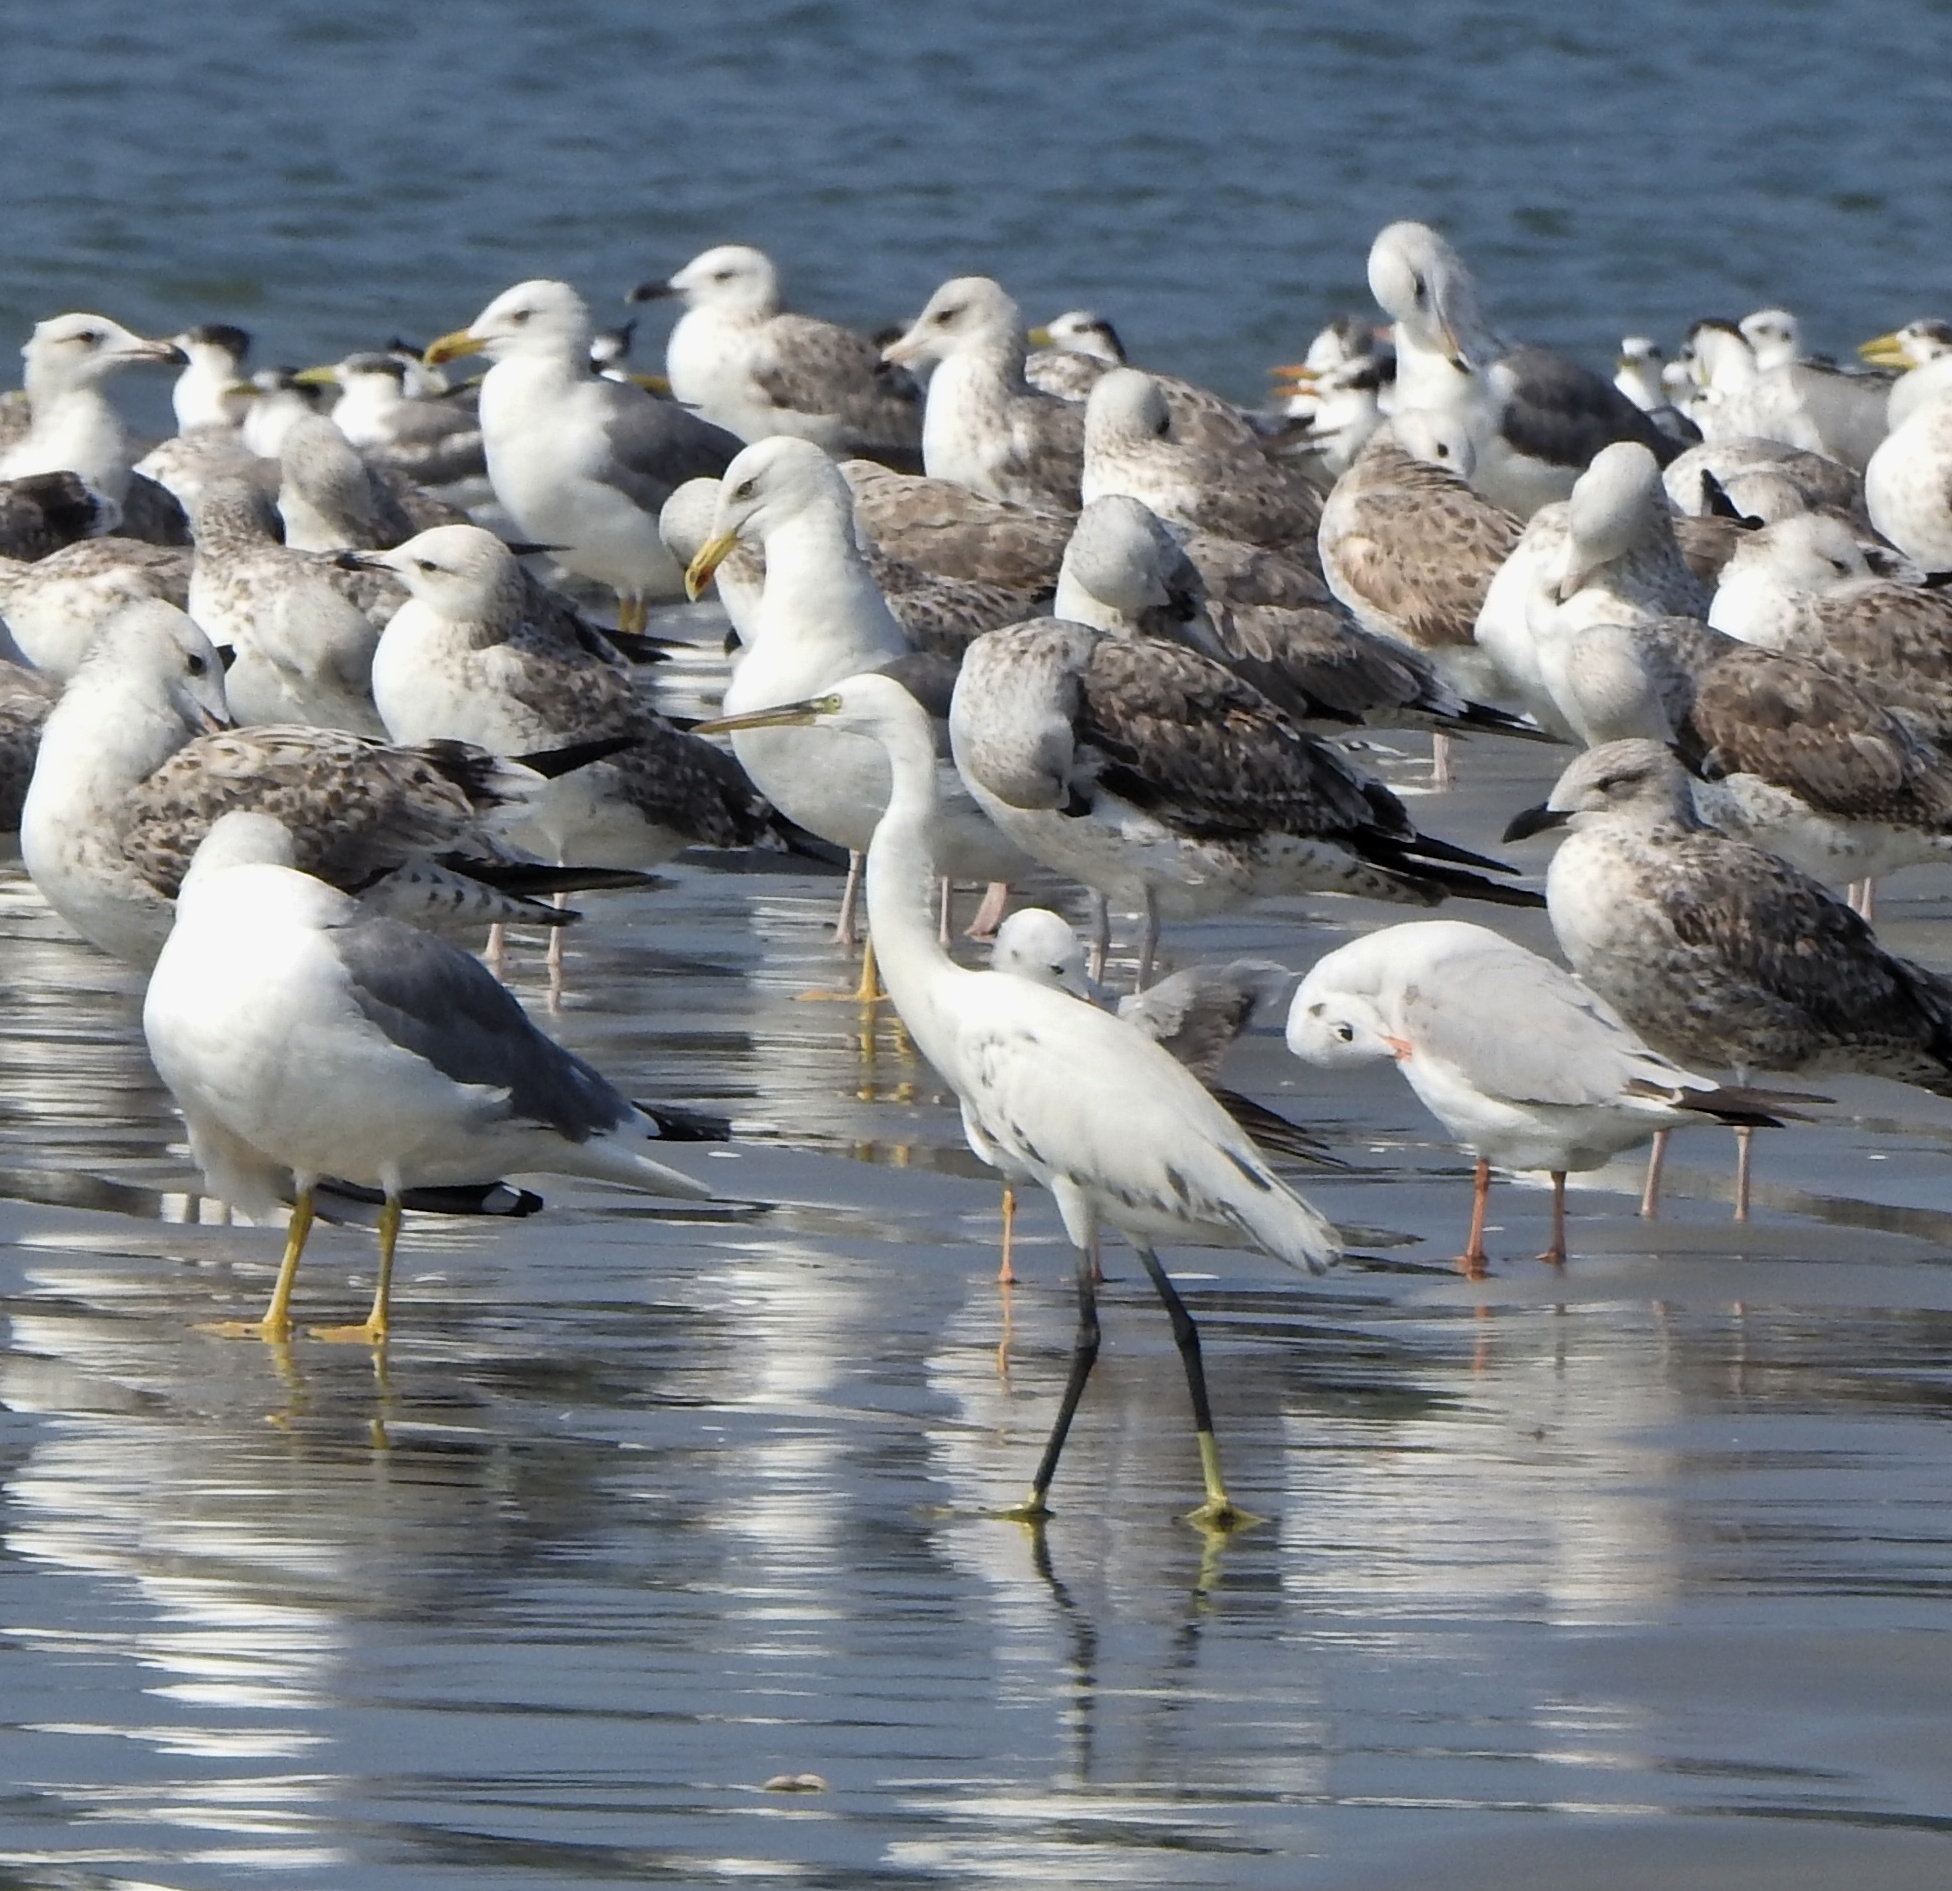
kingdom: Animalia
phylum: Chordata
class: Aves
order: Pelecaniformes
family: Ardeidae
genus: Egretta
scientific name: Egretta gularis
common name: Western reef-heron
